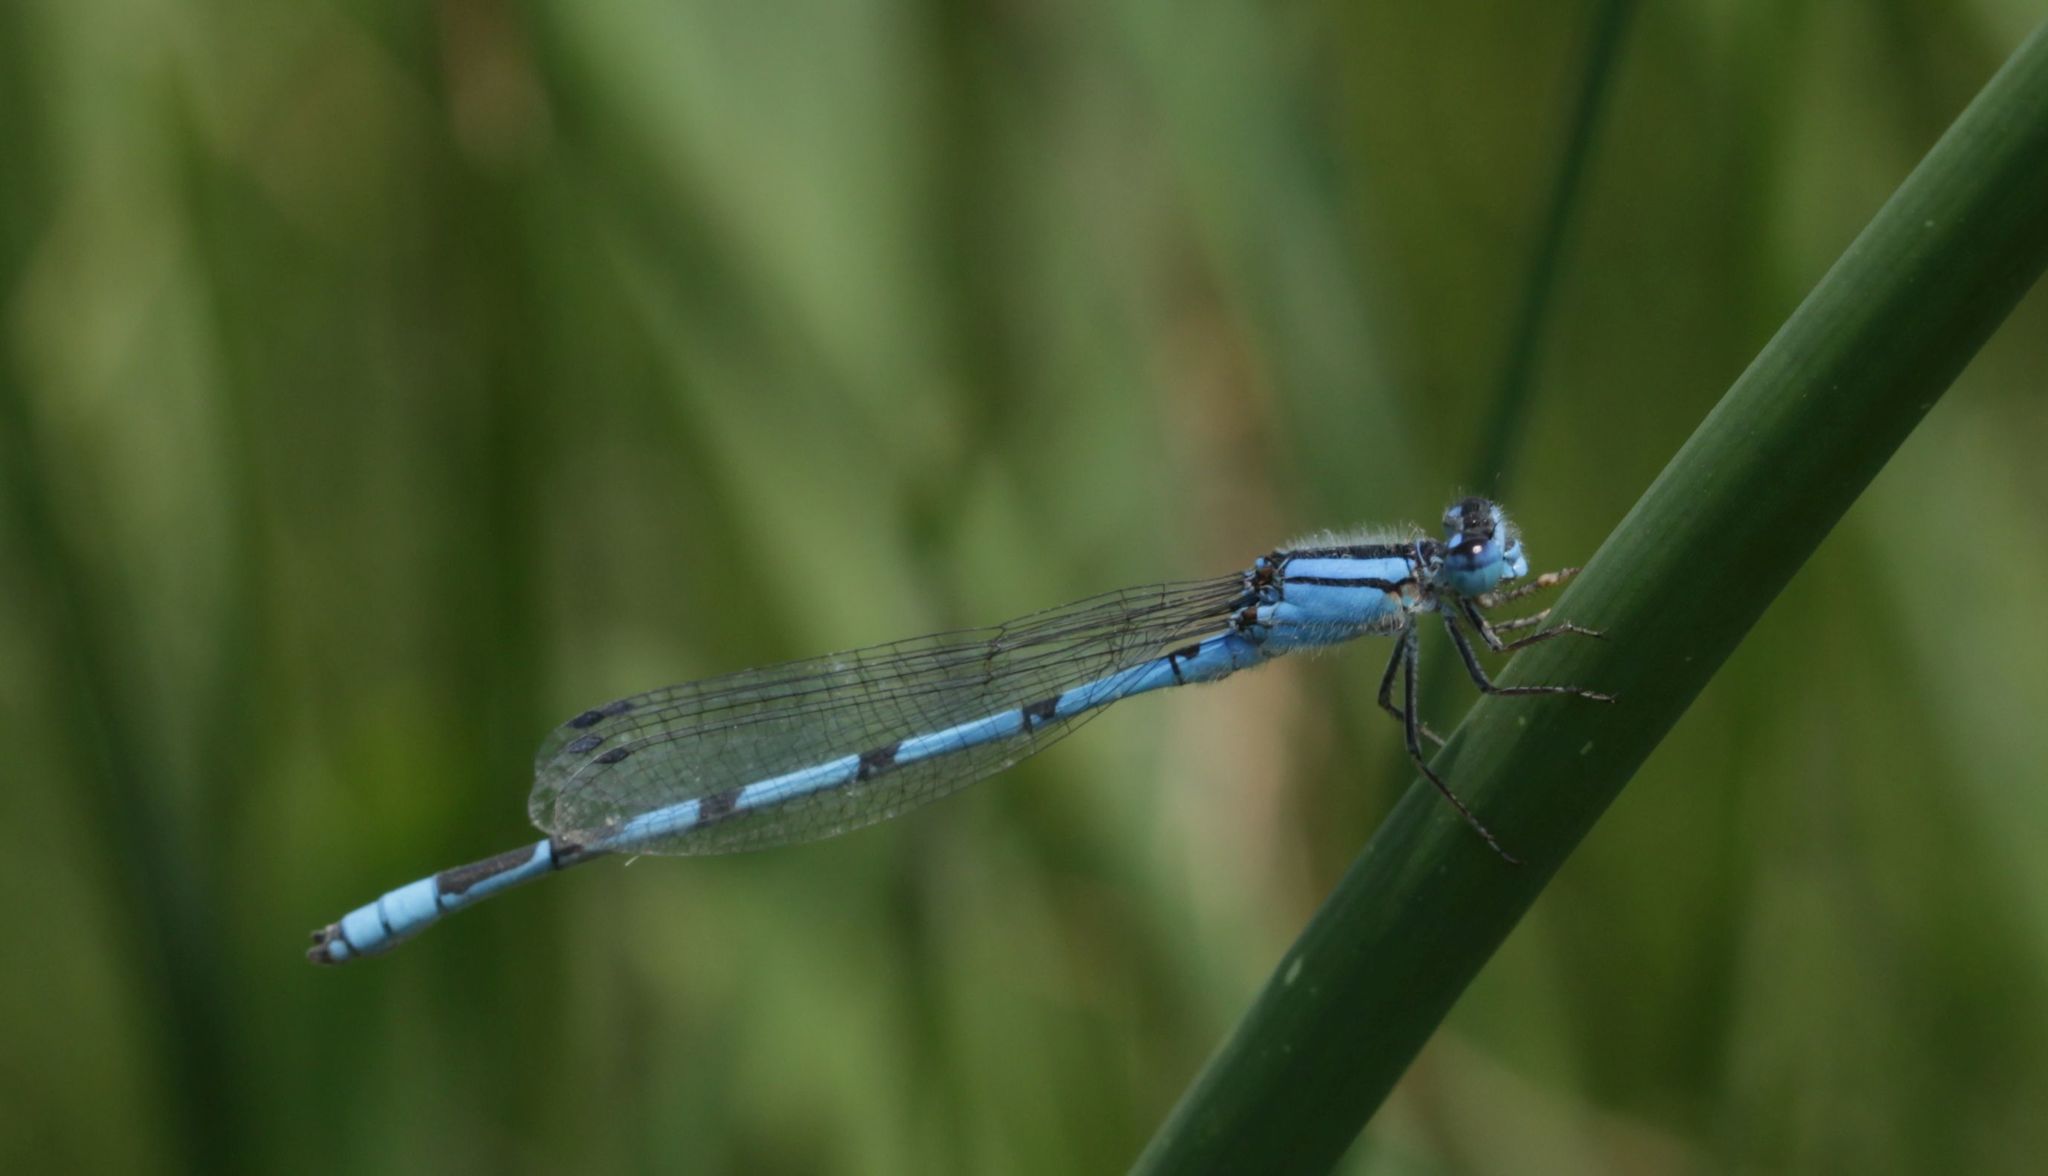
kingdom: Animalia
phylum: Arthropoda
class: Insecta
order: Odonata
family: Coenagrionidae
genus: Enallagma
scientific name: Enallagma civile
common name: Damselfly
